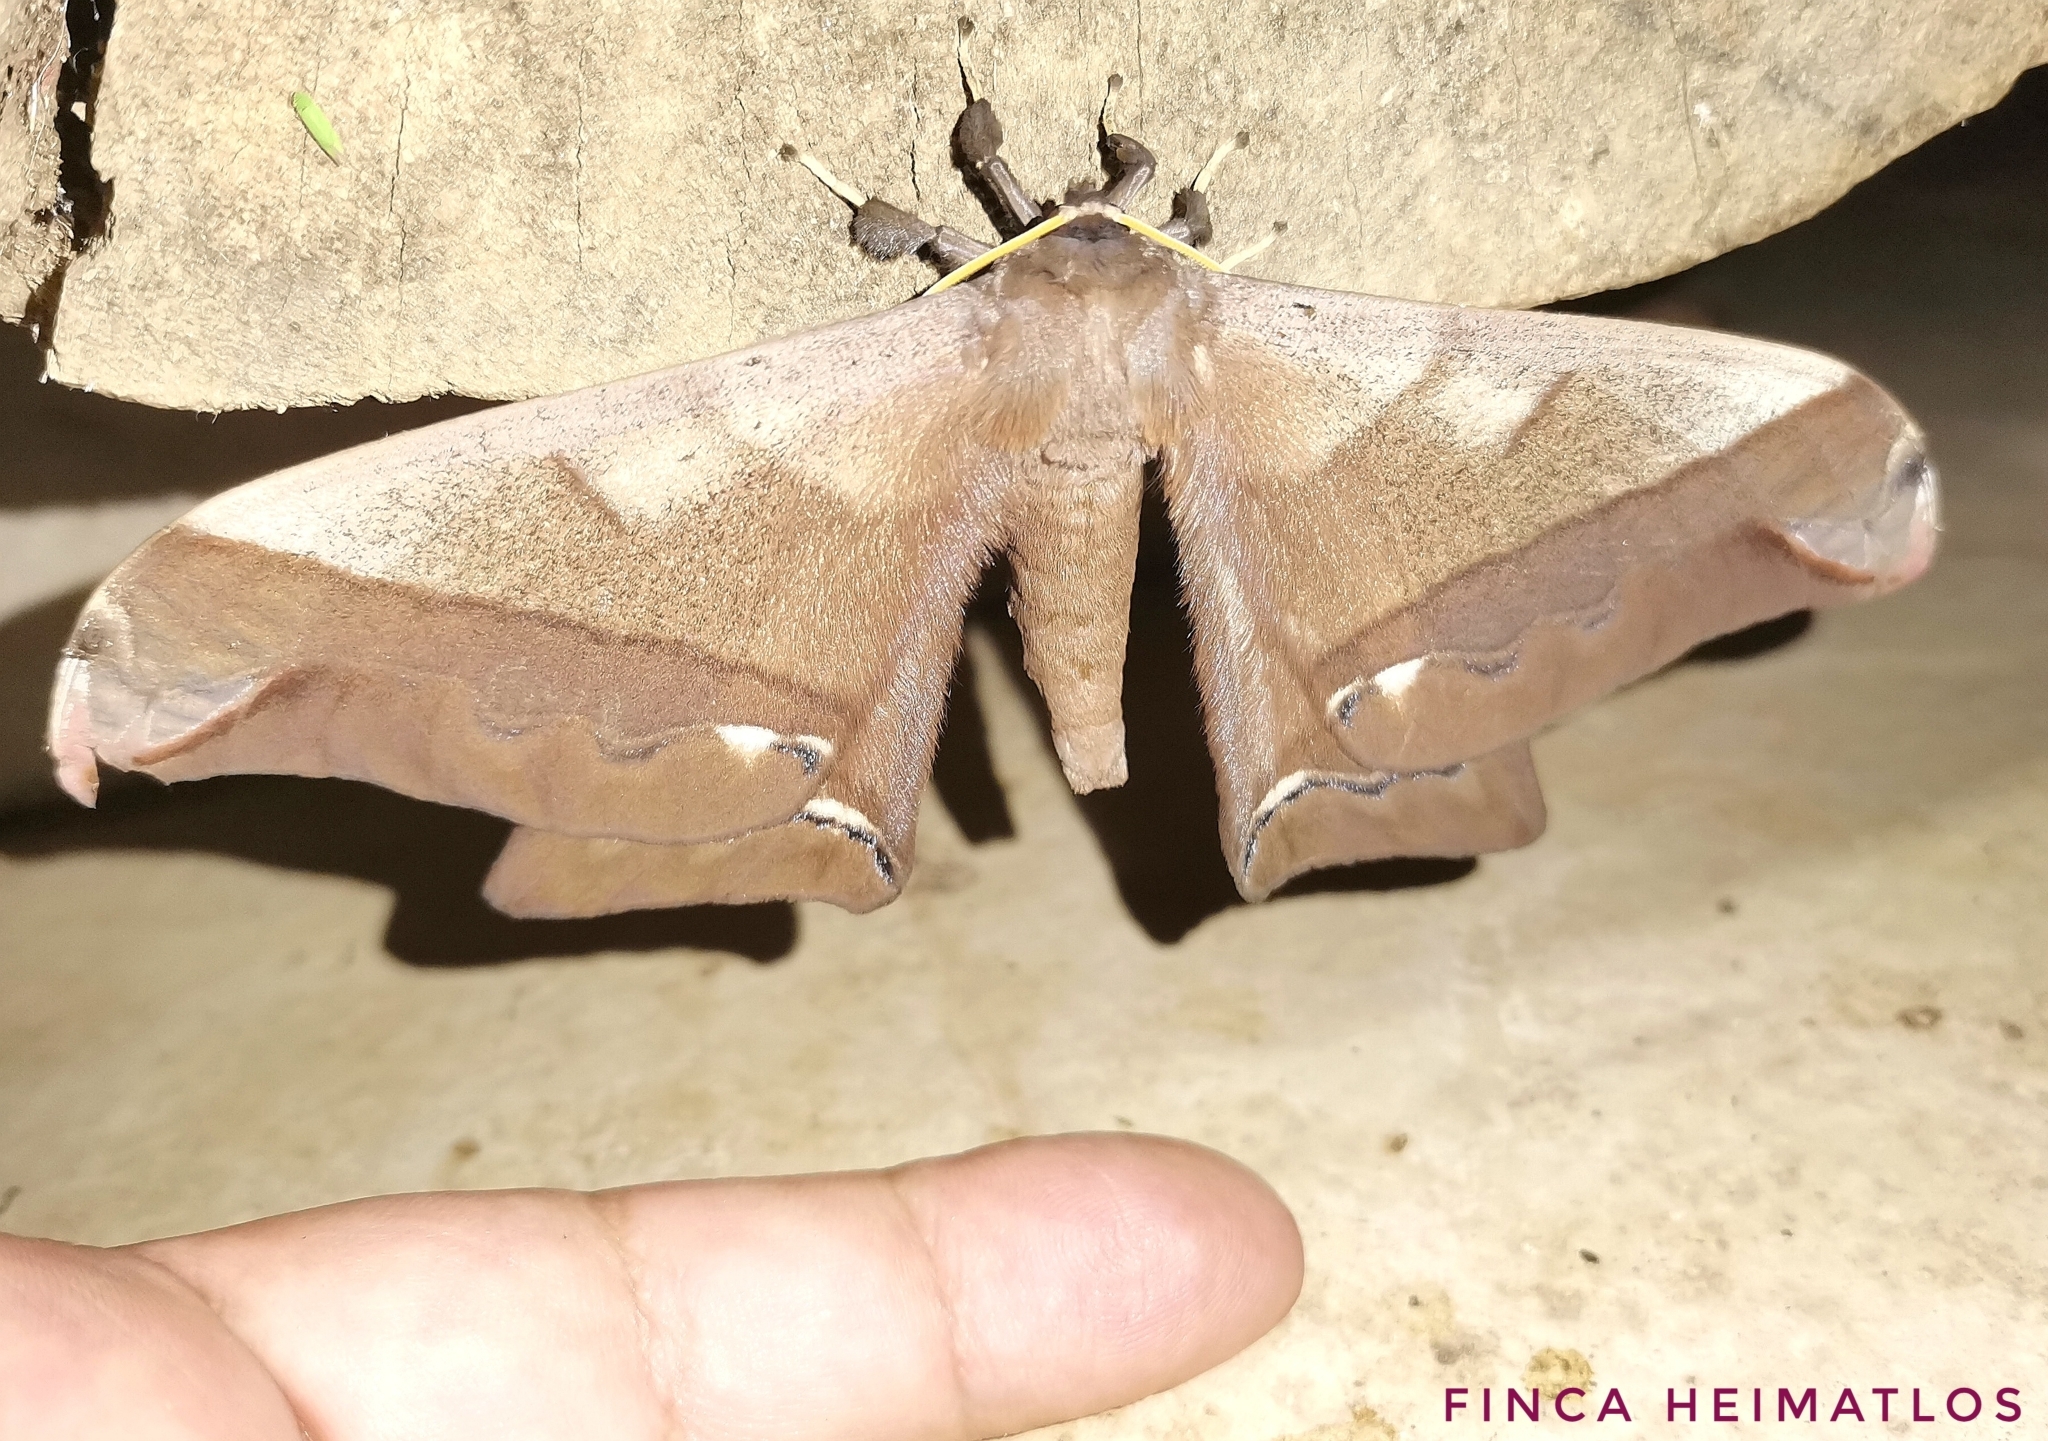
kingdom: Animalia
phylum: Arthropoda
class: Insecta
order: Lepidoptera
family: Saturniidae
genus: Arsenura
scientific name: Arsenura fuscata
